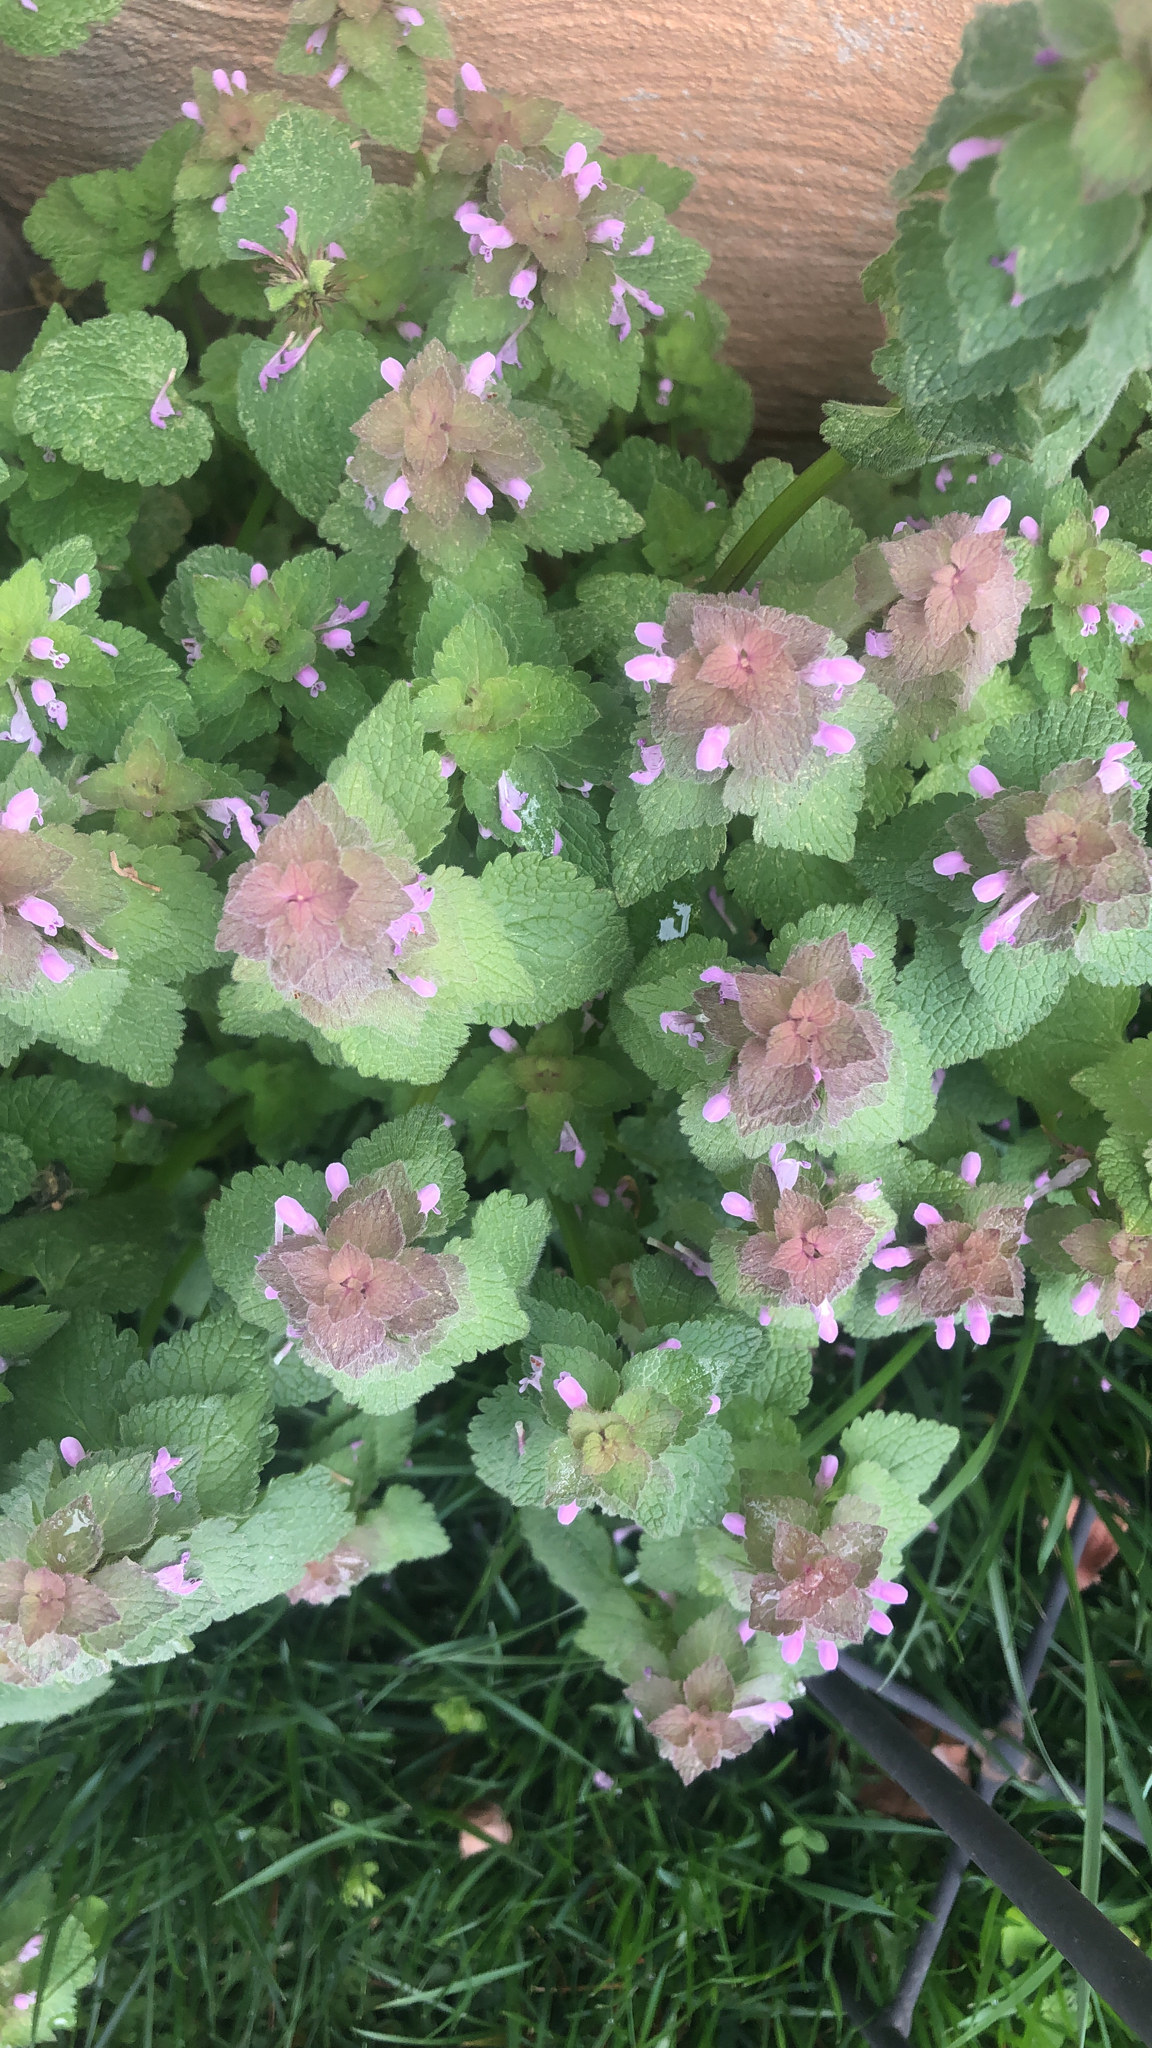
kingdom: Plantae
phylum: Tracheophyta
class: Magnoliopsida
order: Lamiales
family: Lamiaceae
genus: Lamium
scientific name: Lamium purpureum
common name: Red dead-nettle
